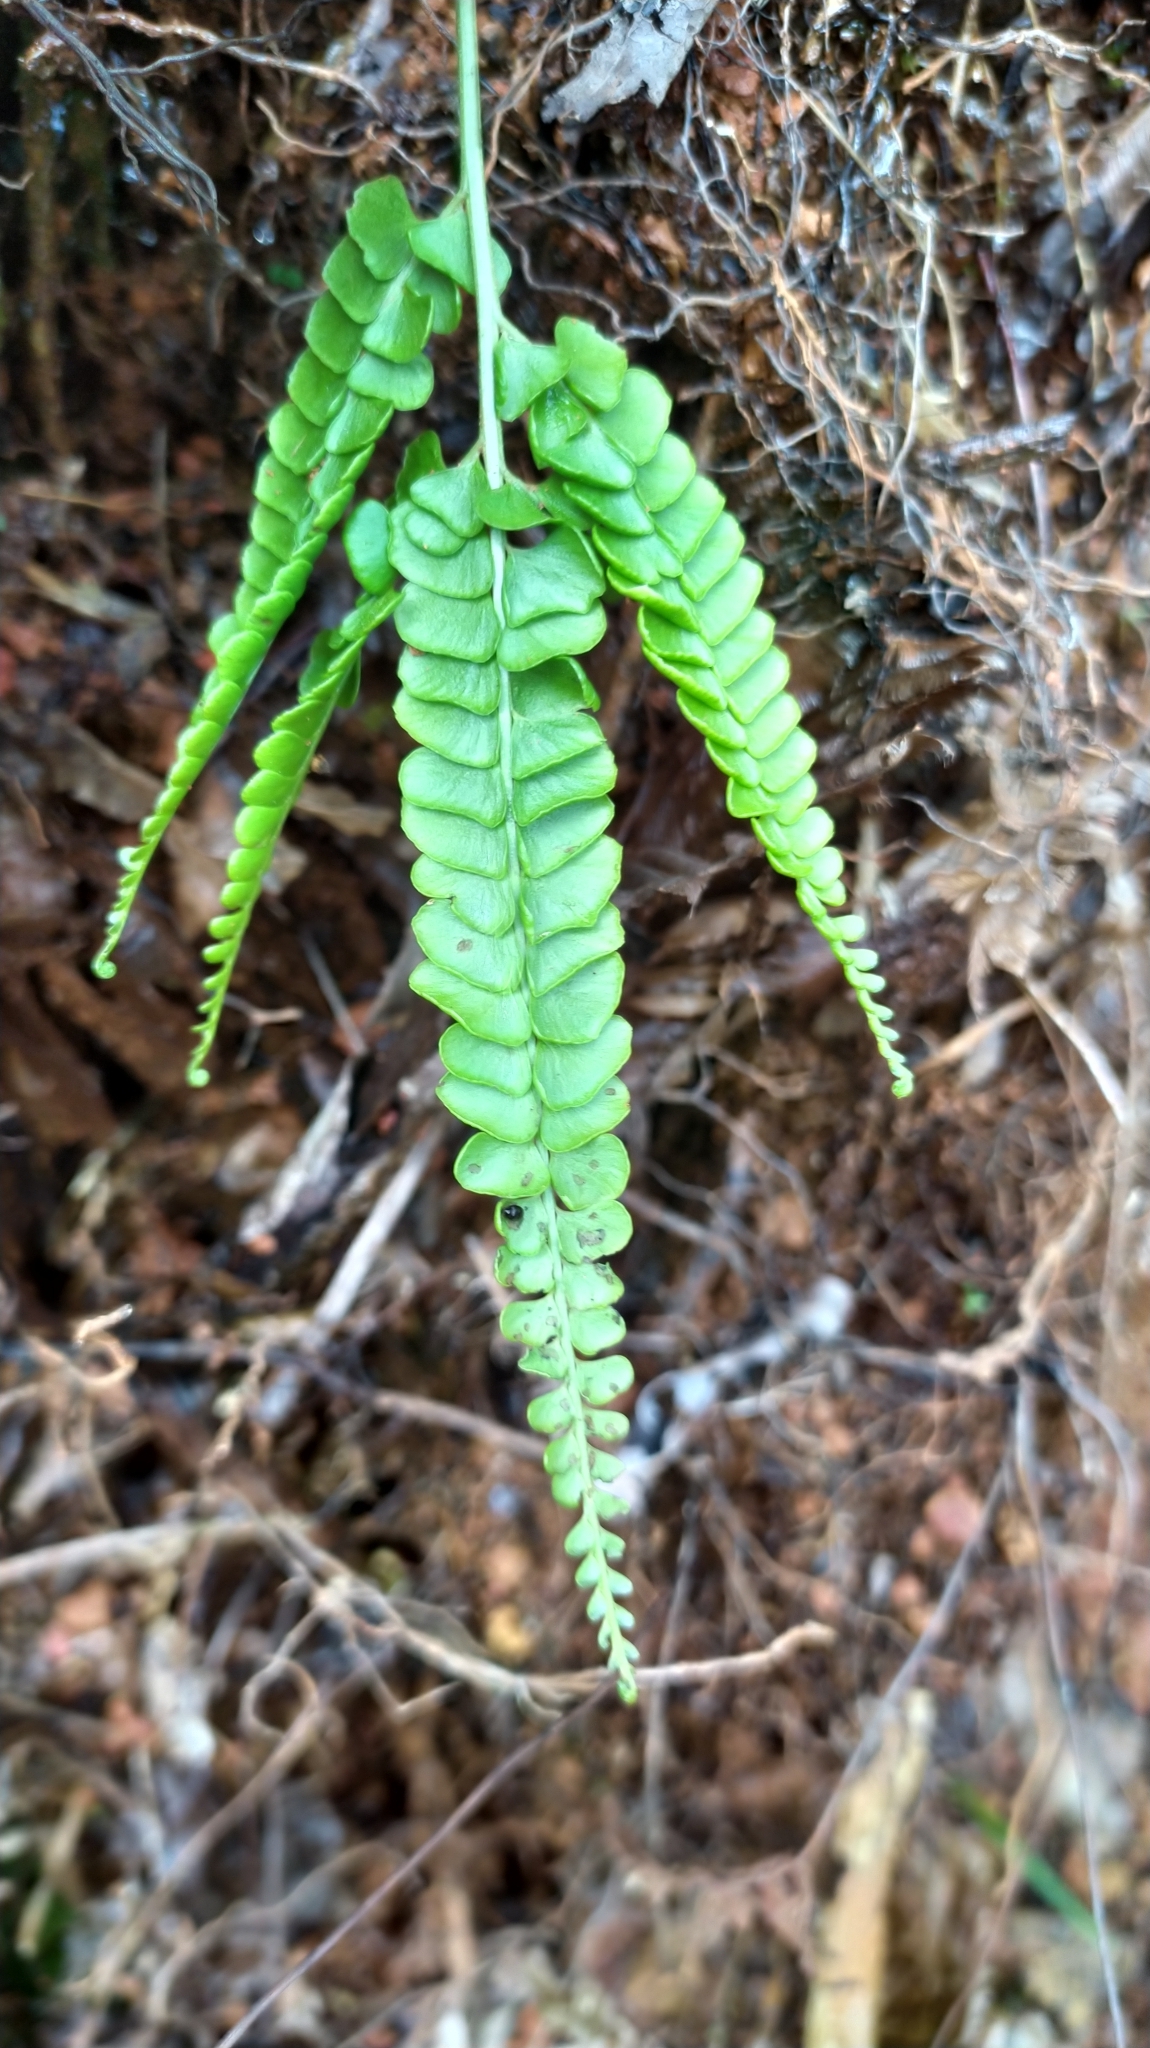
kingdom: Plantae
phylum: Tracheophyta
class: Polypodiopsida
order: Polypodiales
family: Lindsaeaceae
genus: Lindsaea
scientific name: Lindsaea stricta
